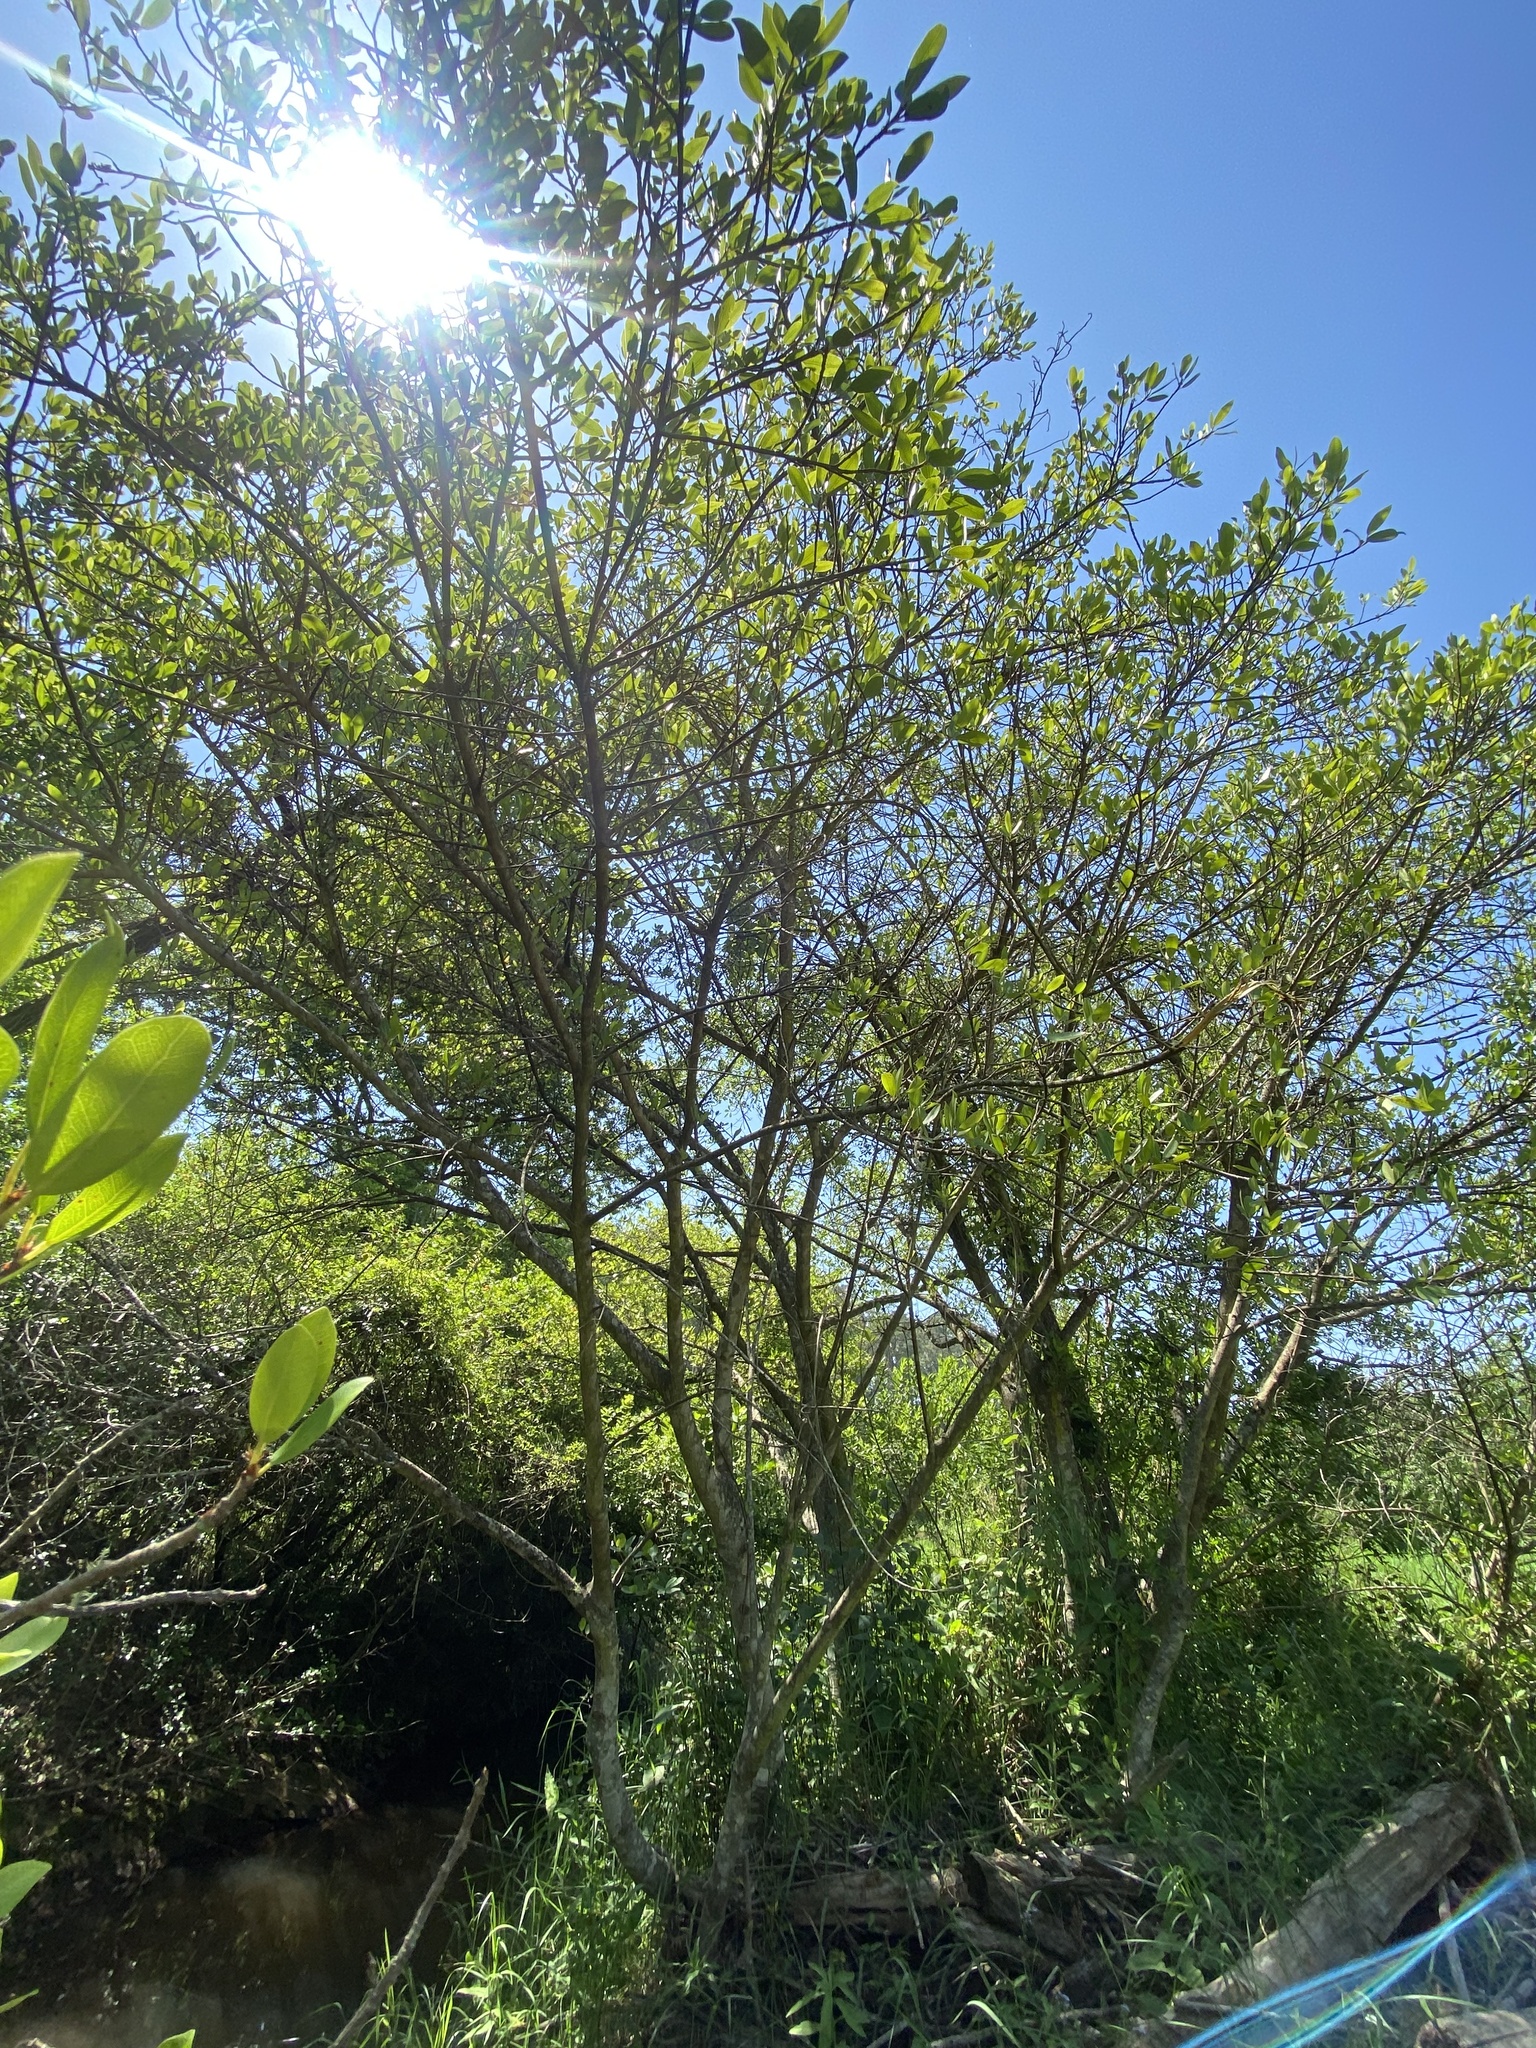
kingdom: Plantae
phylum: Tracheophyta
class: Magnoliopsida
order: Rosales
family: Moraceae
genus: Ficus
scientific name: Ficus thonningii
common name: Fig
